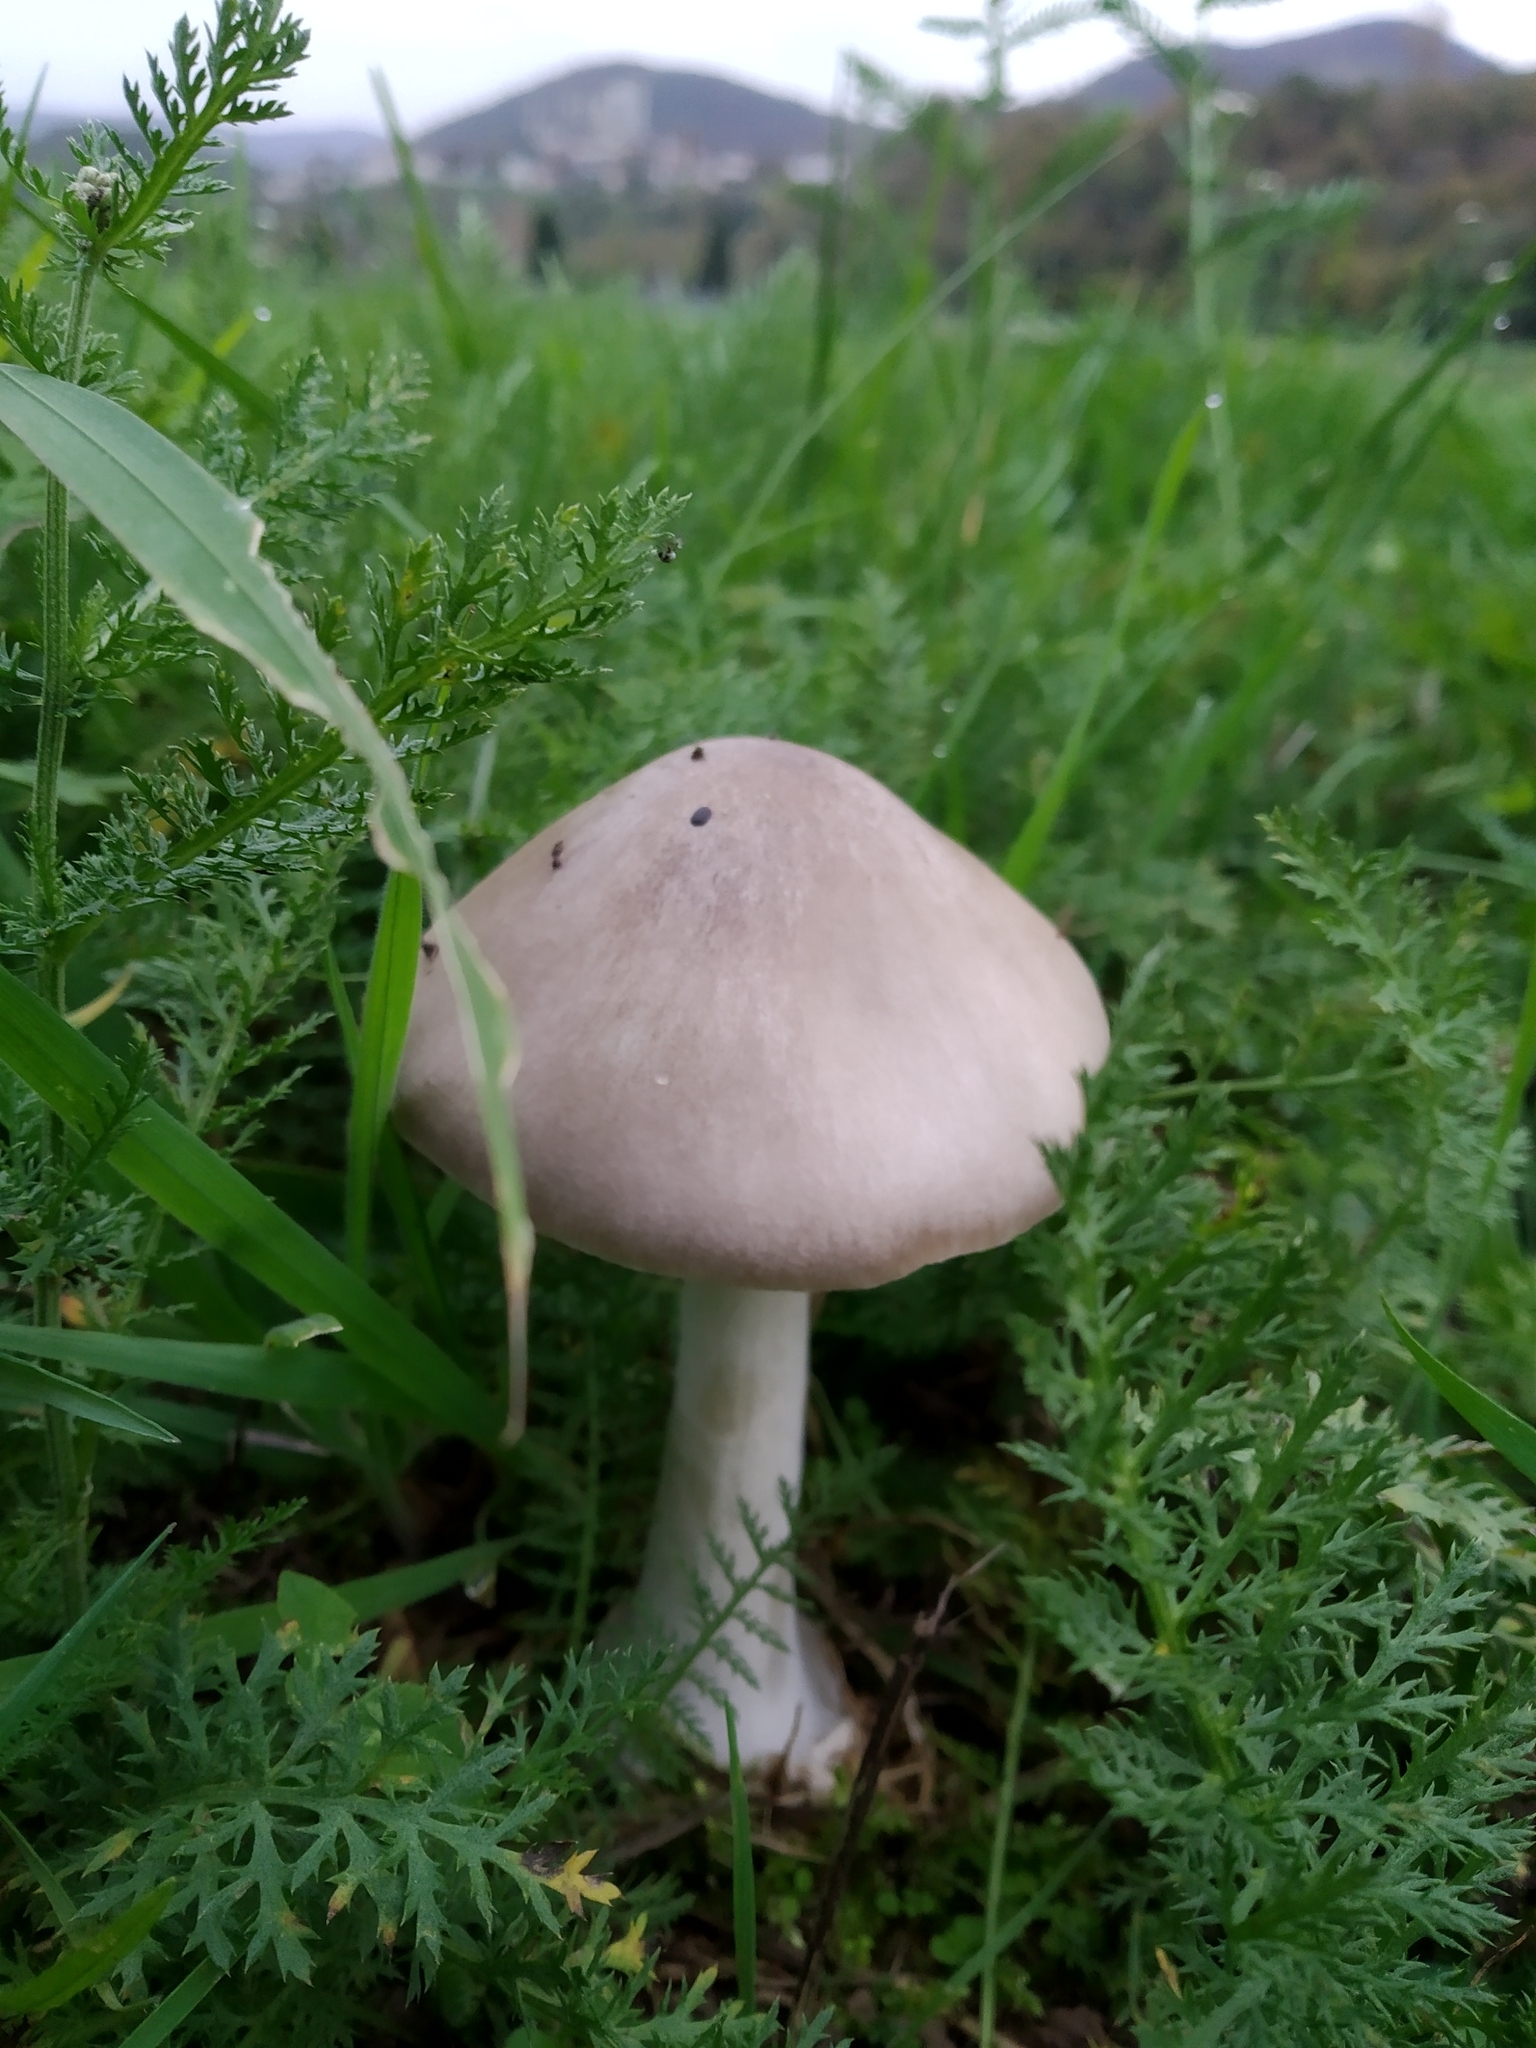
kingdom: Fungi
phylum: Basidiomycota
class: Agaricomycetes
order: Agaricales
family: Pluteaceae
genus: Volvopluteus
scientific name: Volvopluteus gloiocephalus
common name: Stubble rosegill
